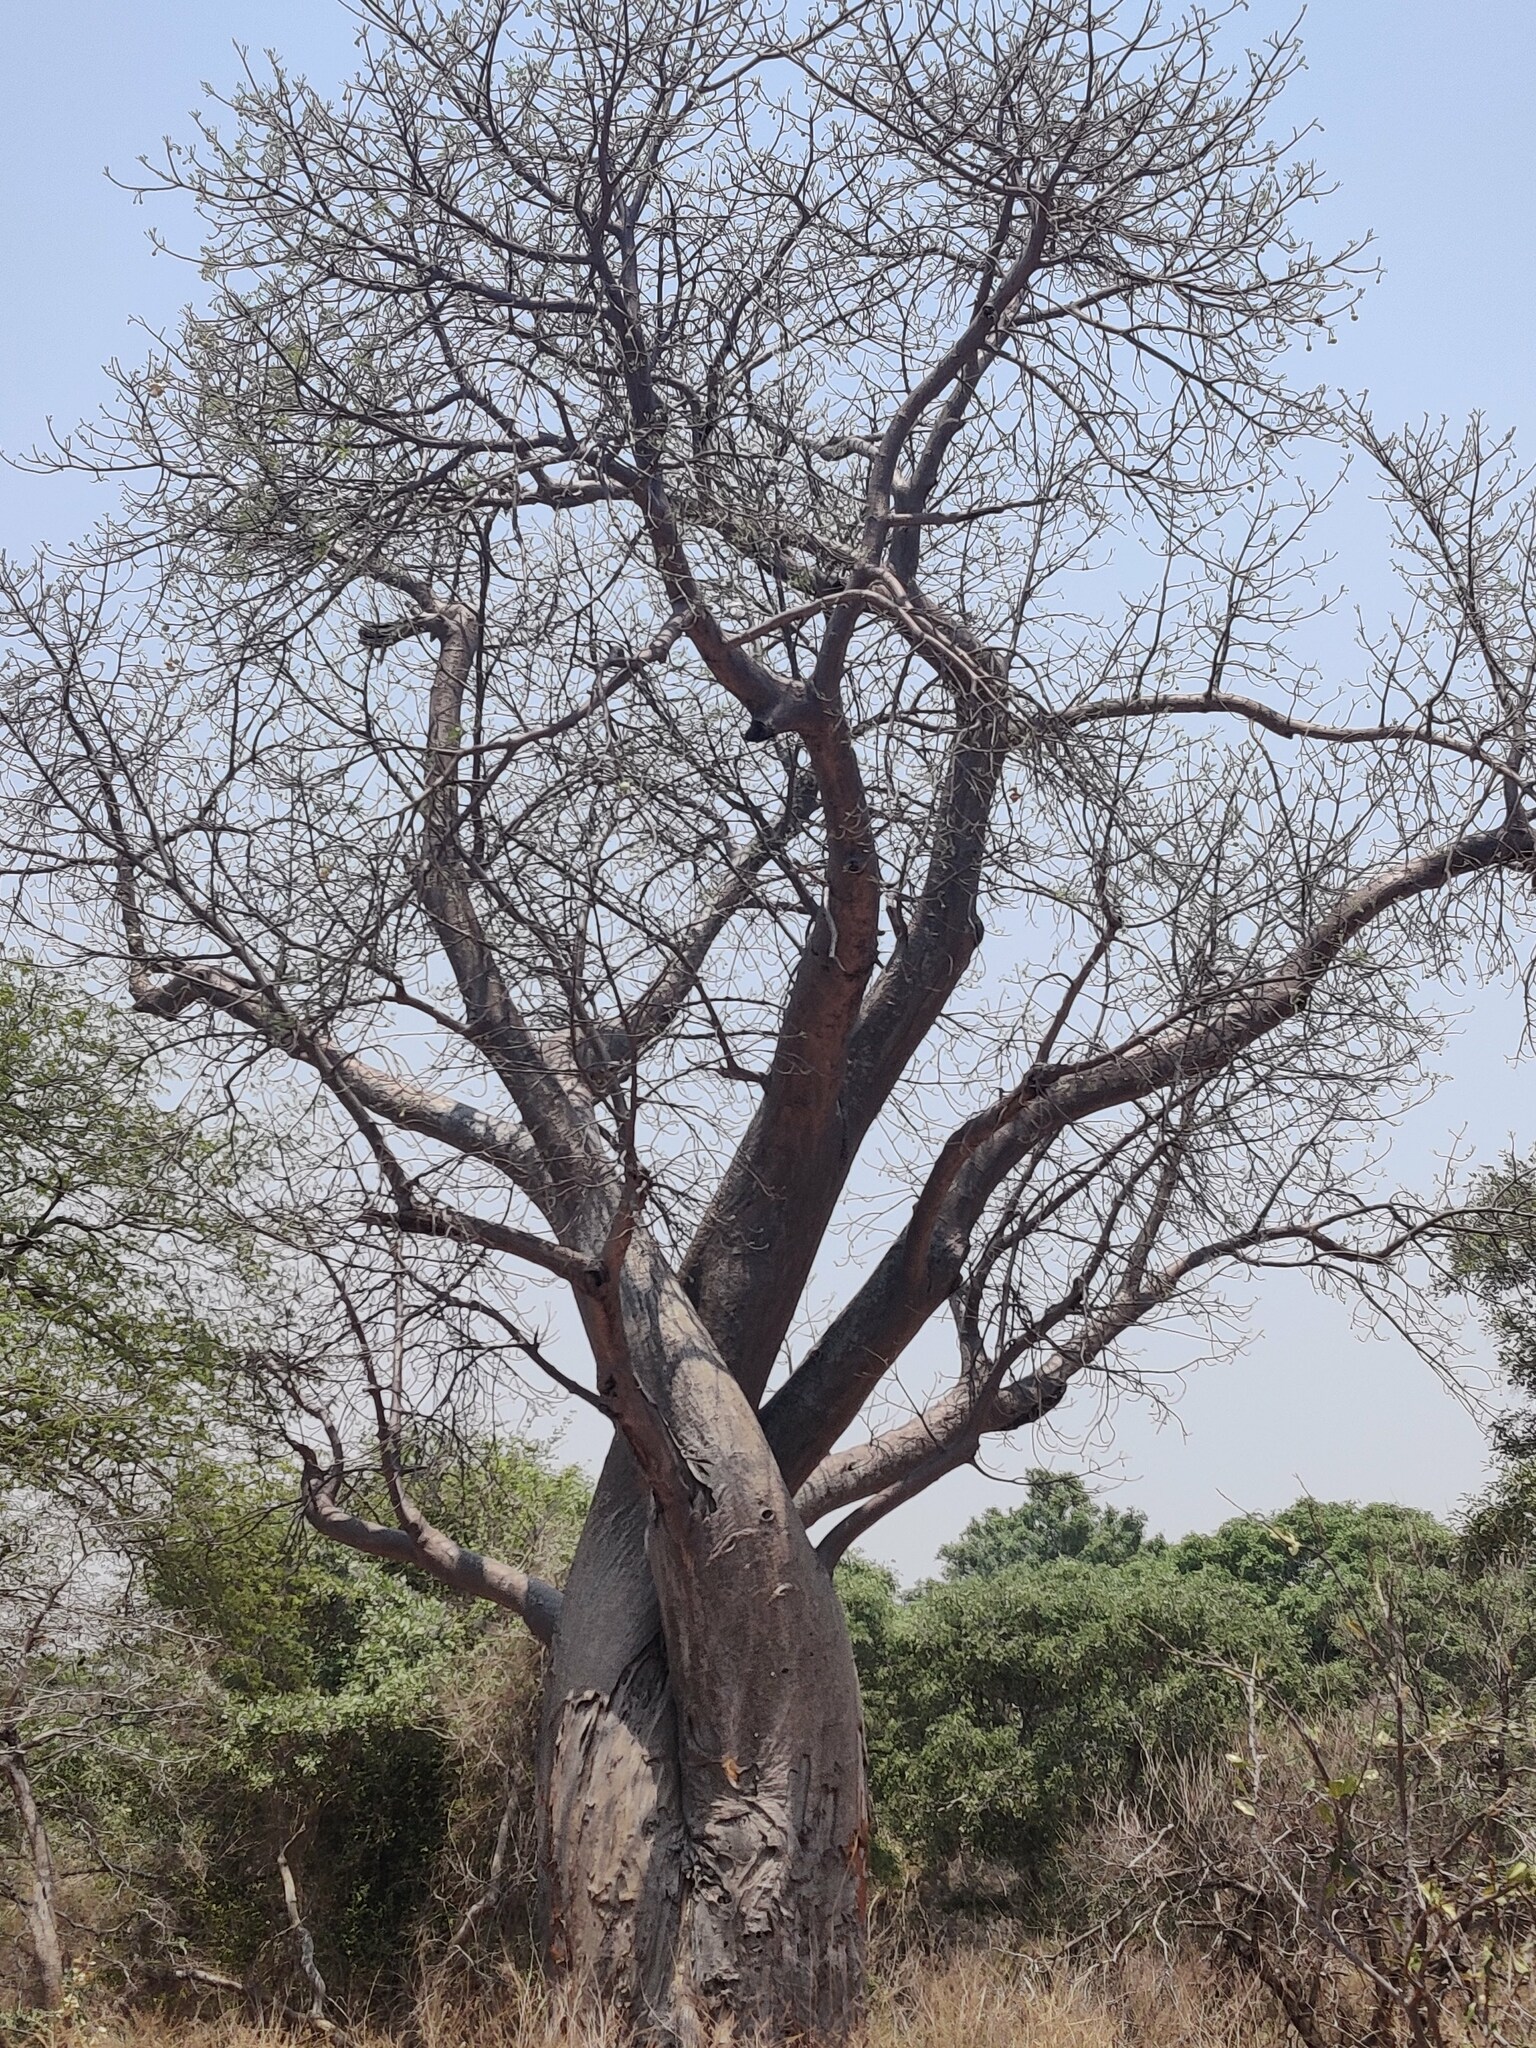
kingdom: Plantae
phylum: Tracheophyta
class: Magnoliopsida
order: Malvales
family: Malvaceae
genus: Adansonia
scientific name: Adansonia digitata
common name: Dead-rat-tree
